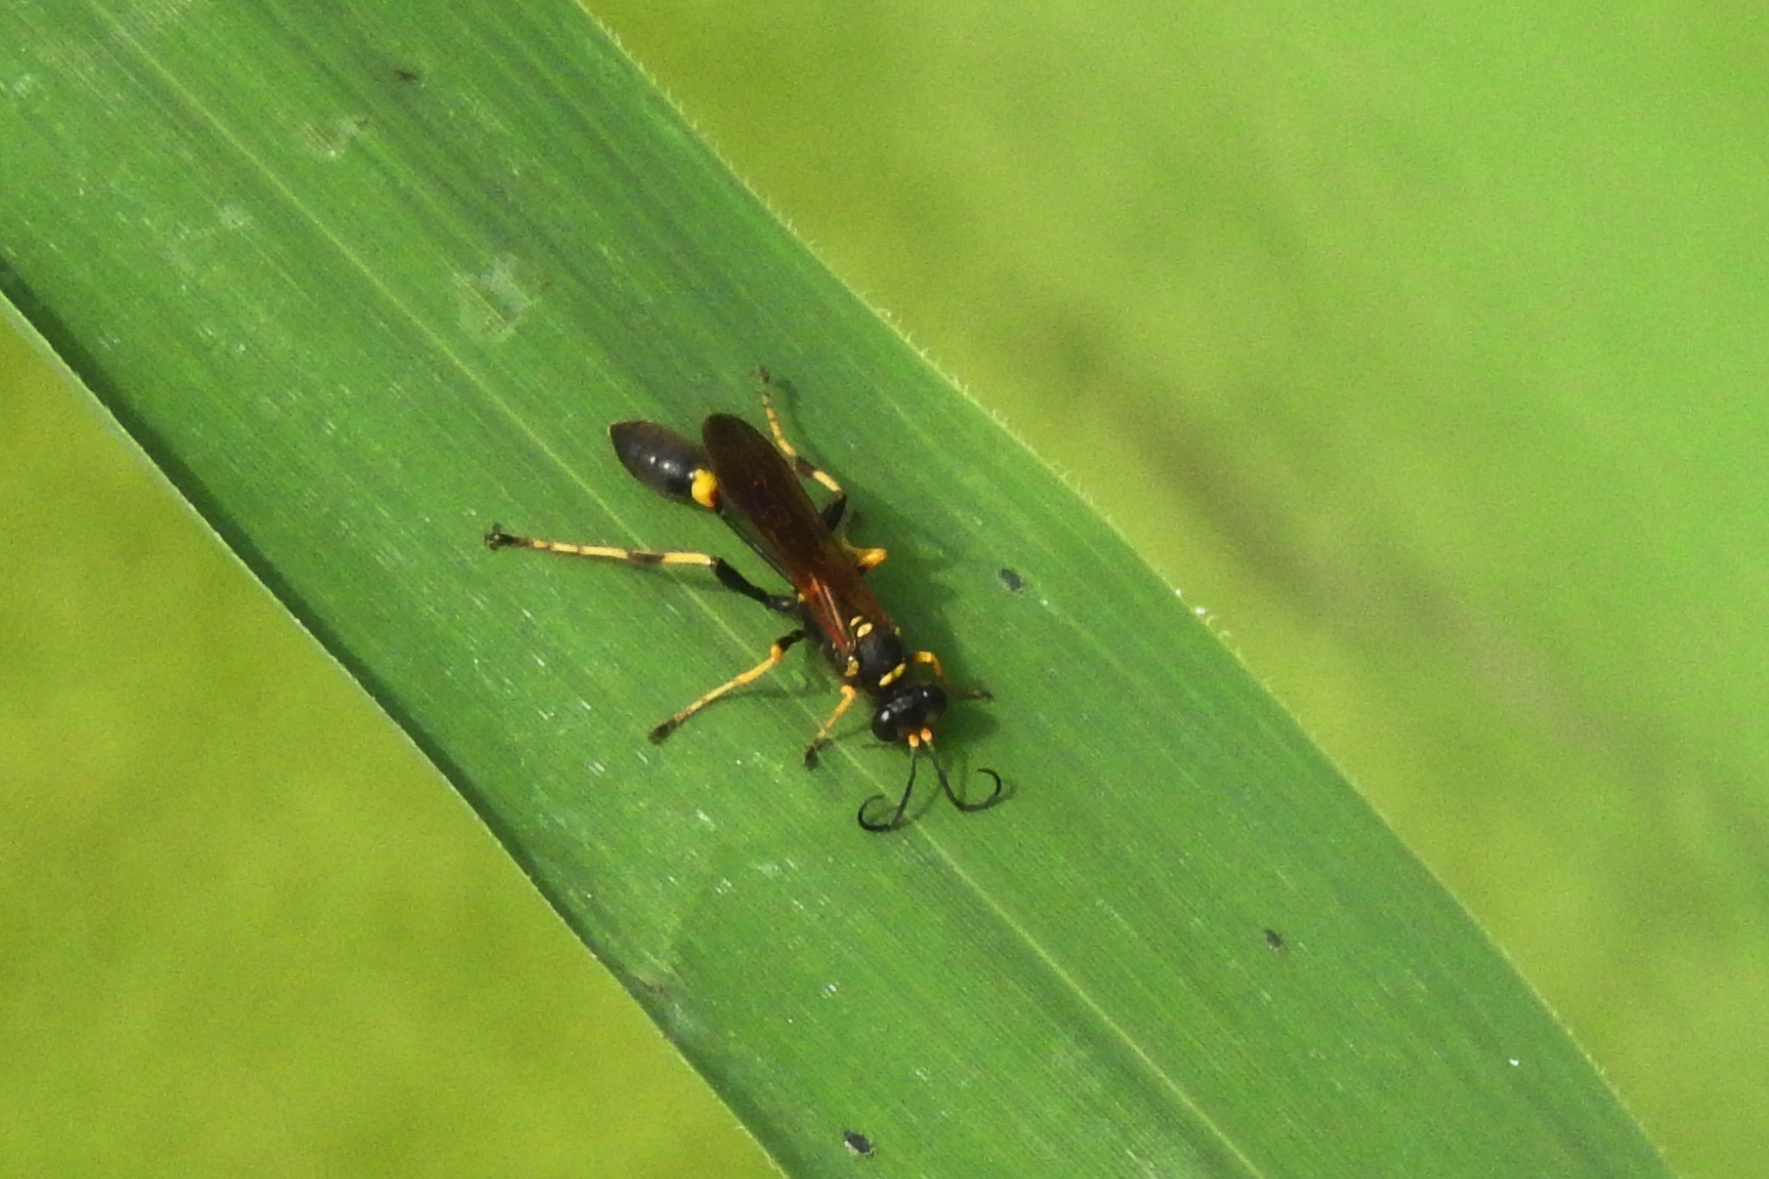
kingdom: Animalia
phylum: Arthropoda
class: Insecta
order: Hymenoptera
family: Sphecidae
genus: Sceliphron
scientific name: Sceliphron caementarium
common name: Mud dauber
